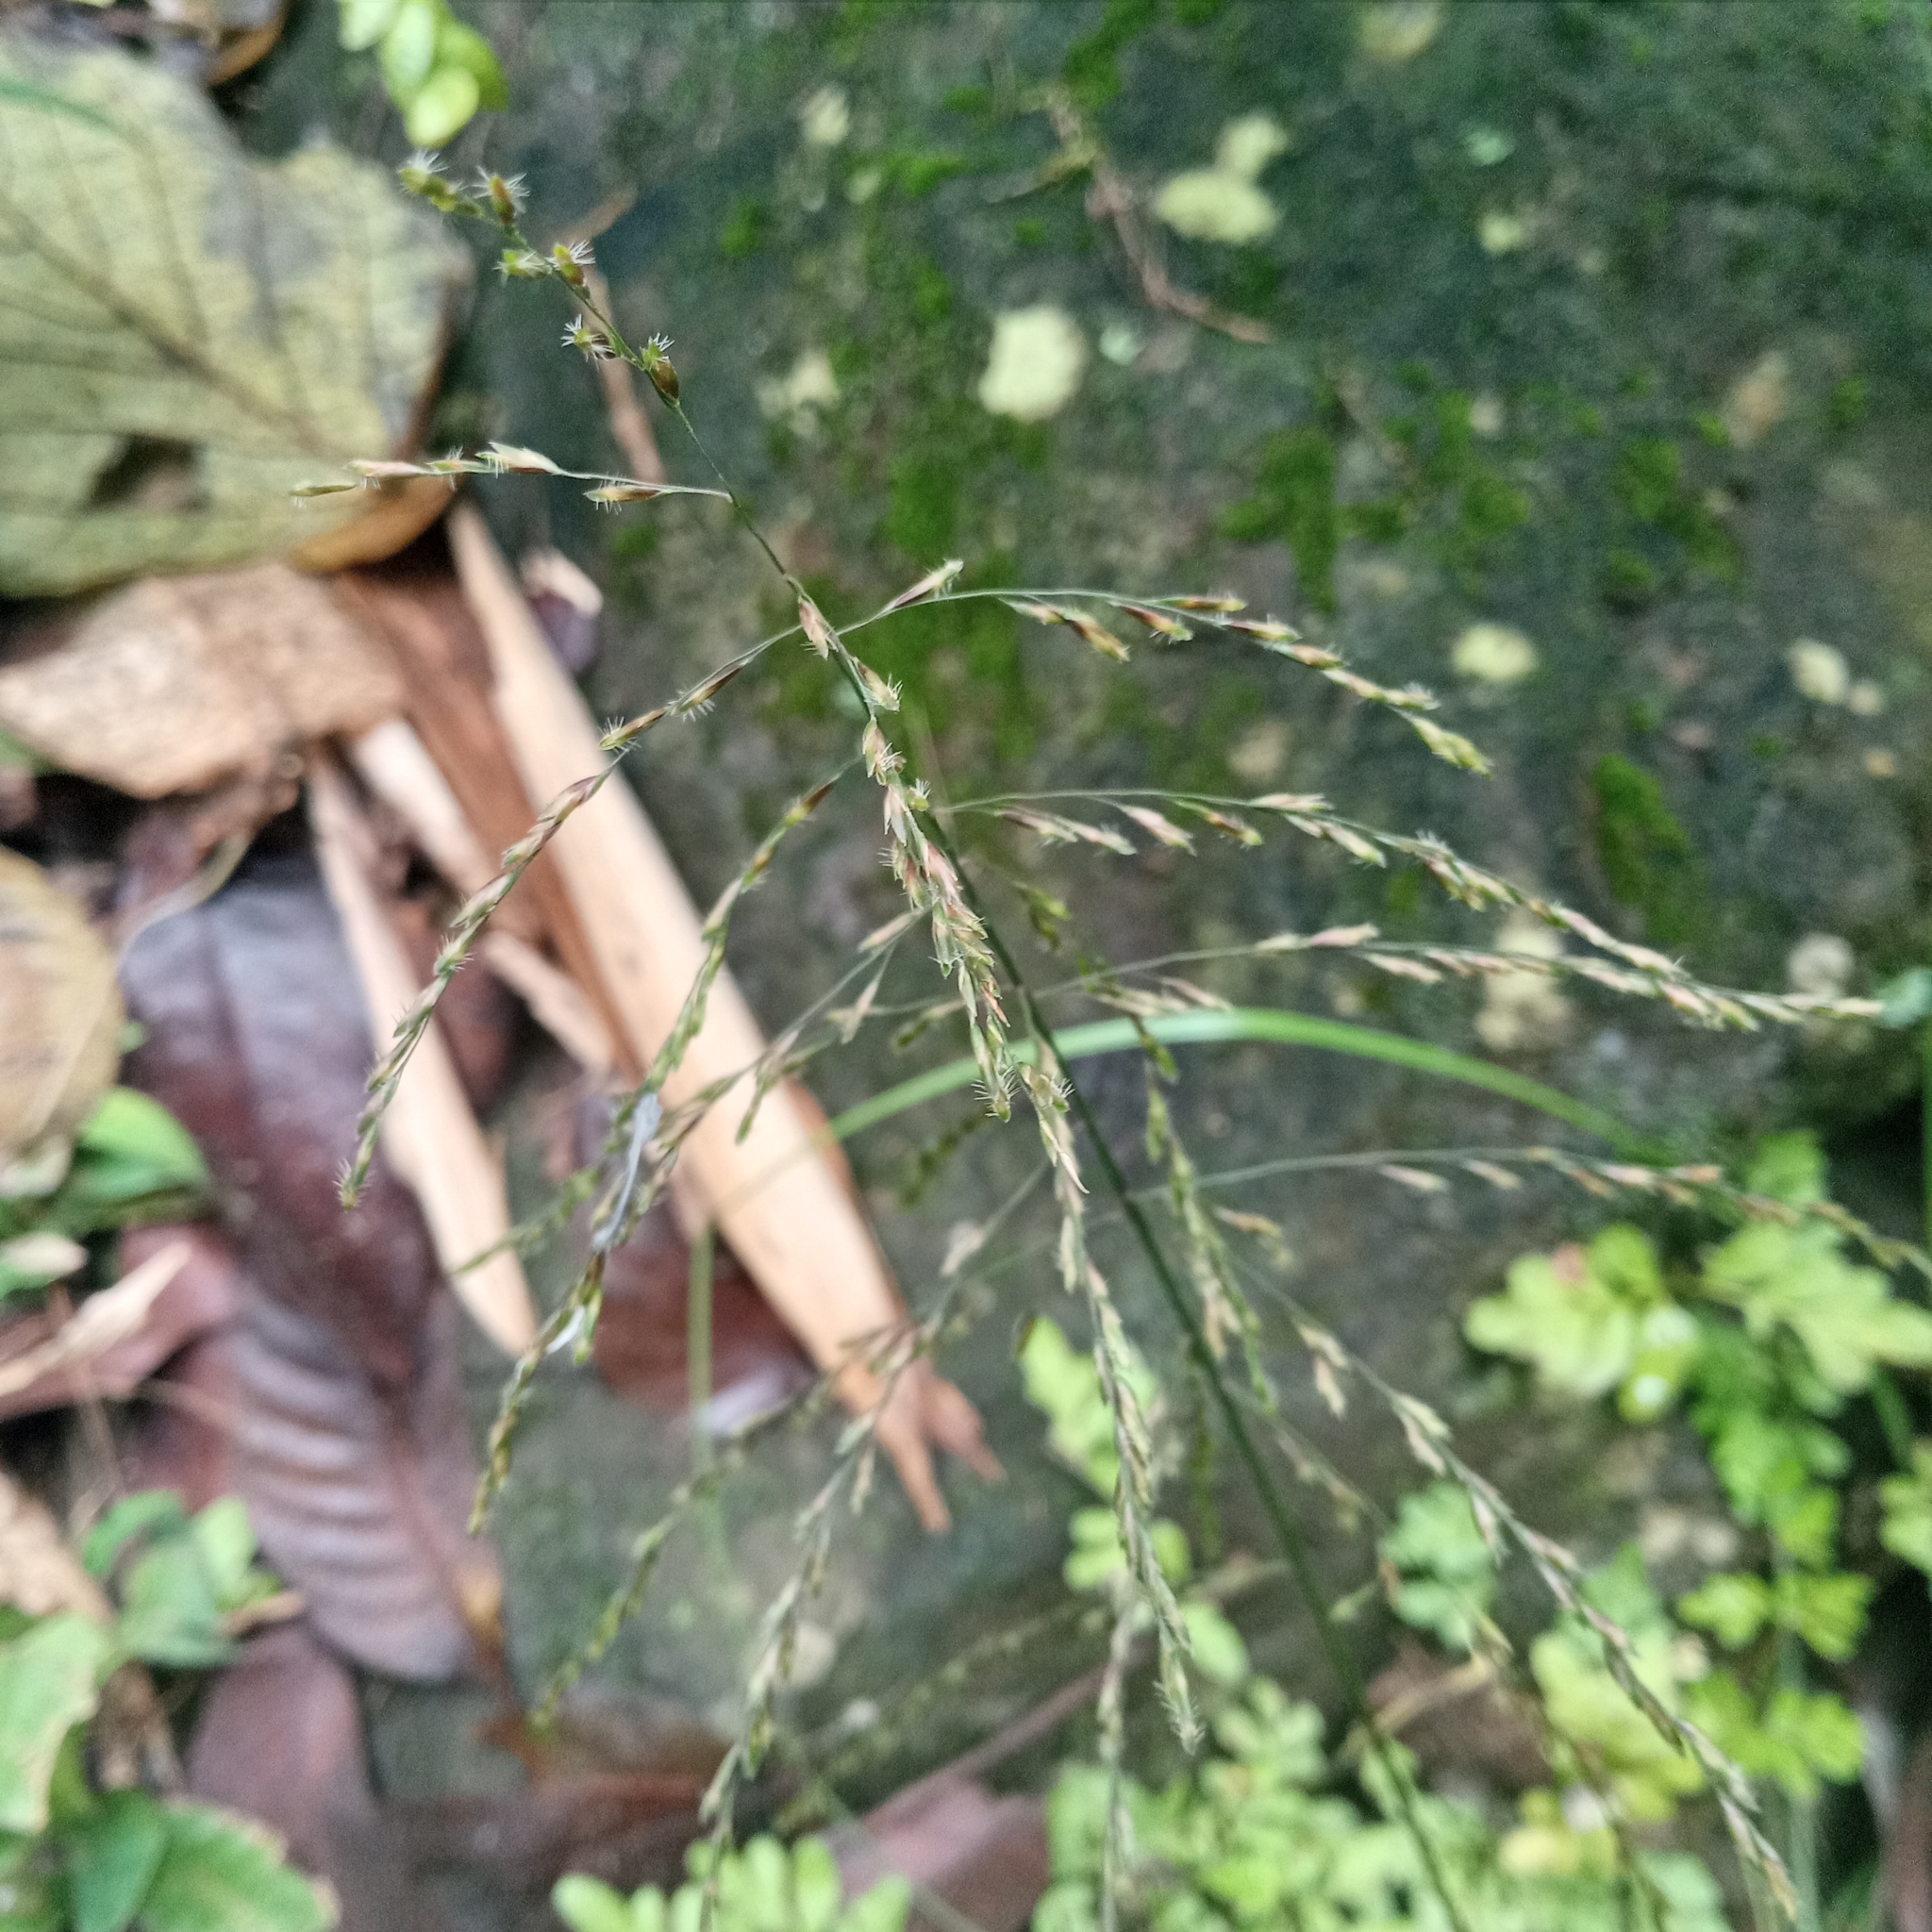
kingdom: Plantae
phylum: Tracheophyta
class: Liliopsida
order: Poales
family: Poaceae
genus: Centotheca
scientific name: Centotheca lappacea
